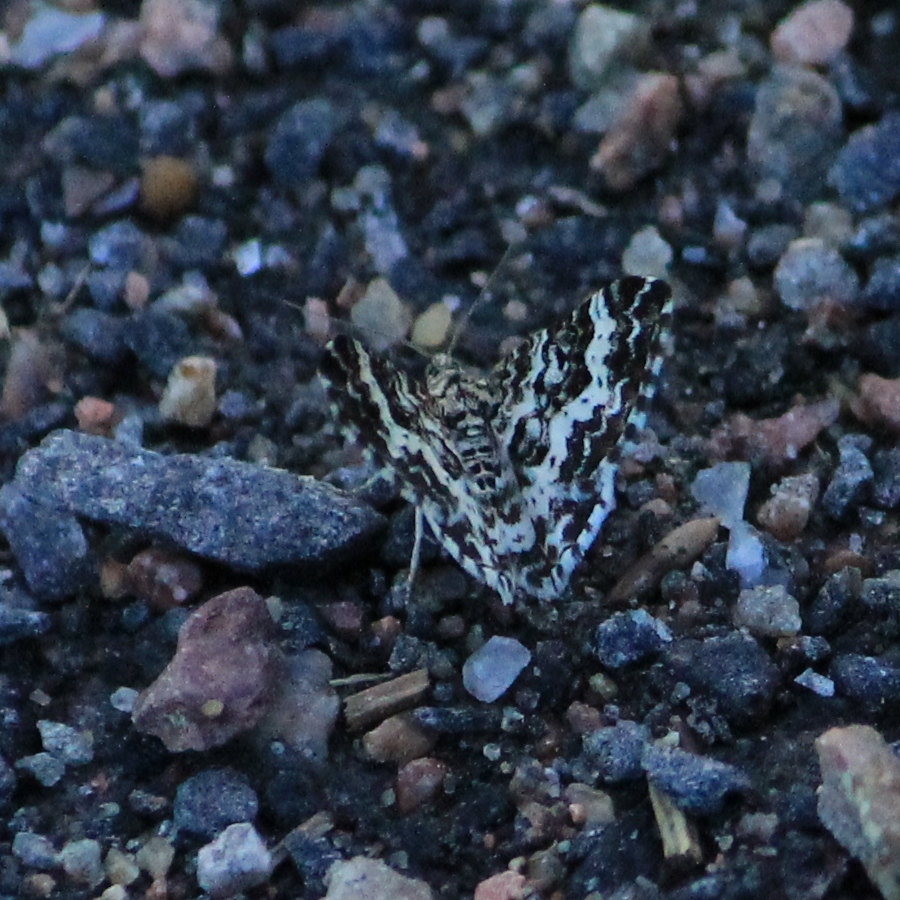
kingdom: Animalia
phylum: Arthropoda
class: Insecta
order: Lepidoptera
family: Geometridae
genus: Epirrhoe
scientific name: Epirrhoe tristata
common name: Small argent & sable
